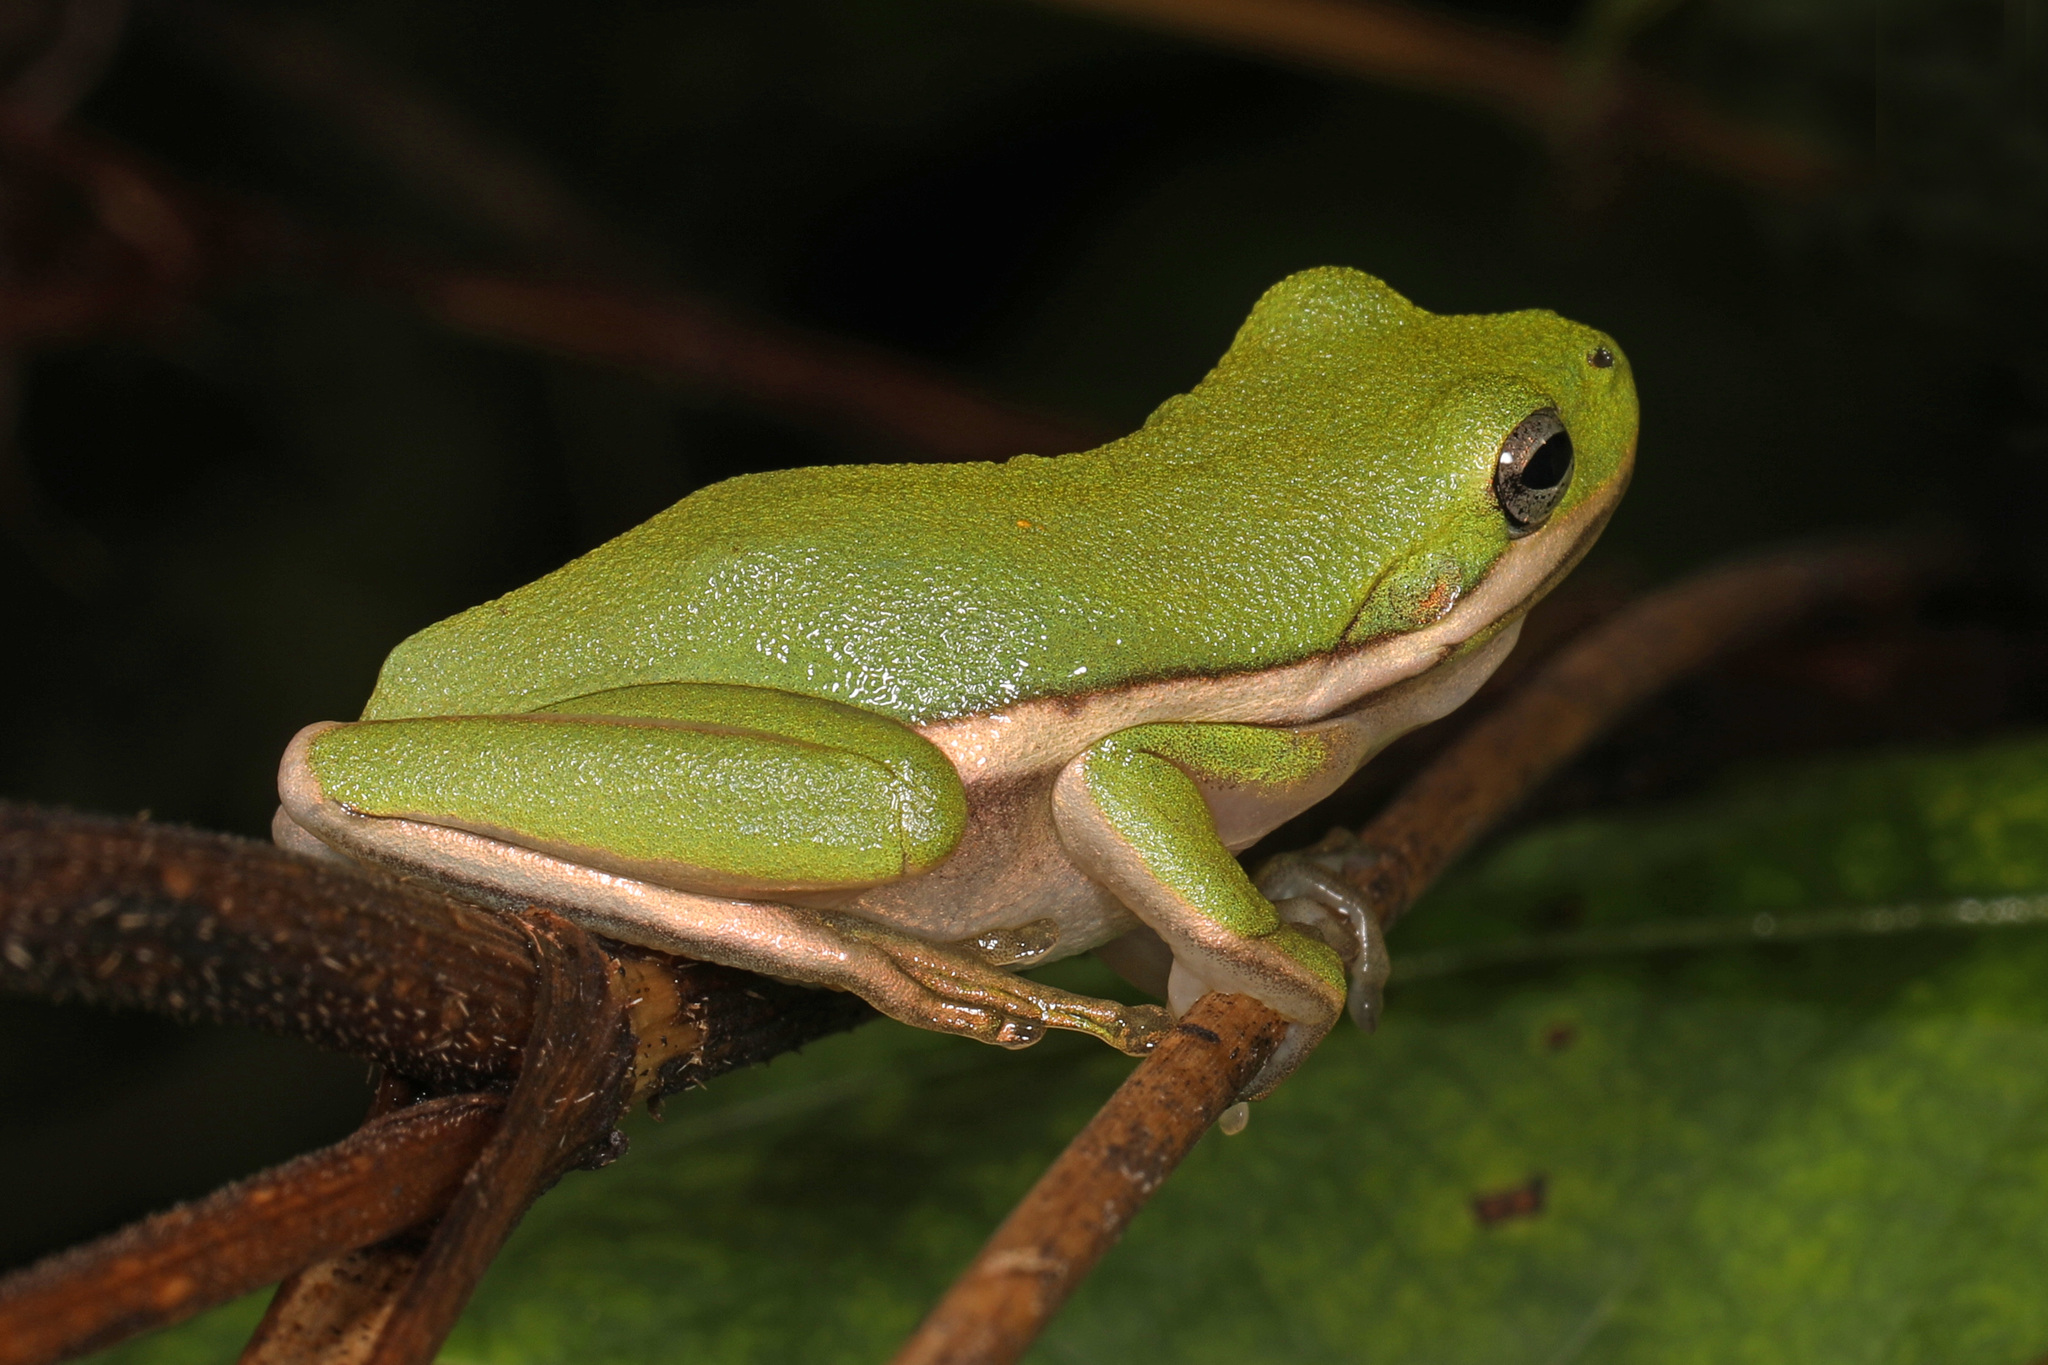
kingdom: Animalia
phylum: Chordata
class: Amphibia
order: Anura
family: Hylidae
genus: Dryophytes
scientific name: Dryophytes cinereus
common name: Green treefrog
